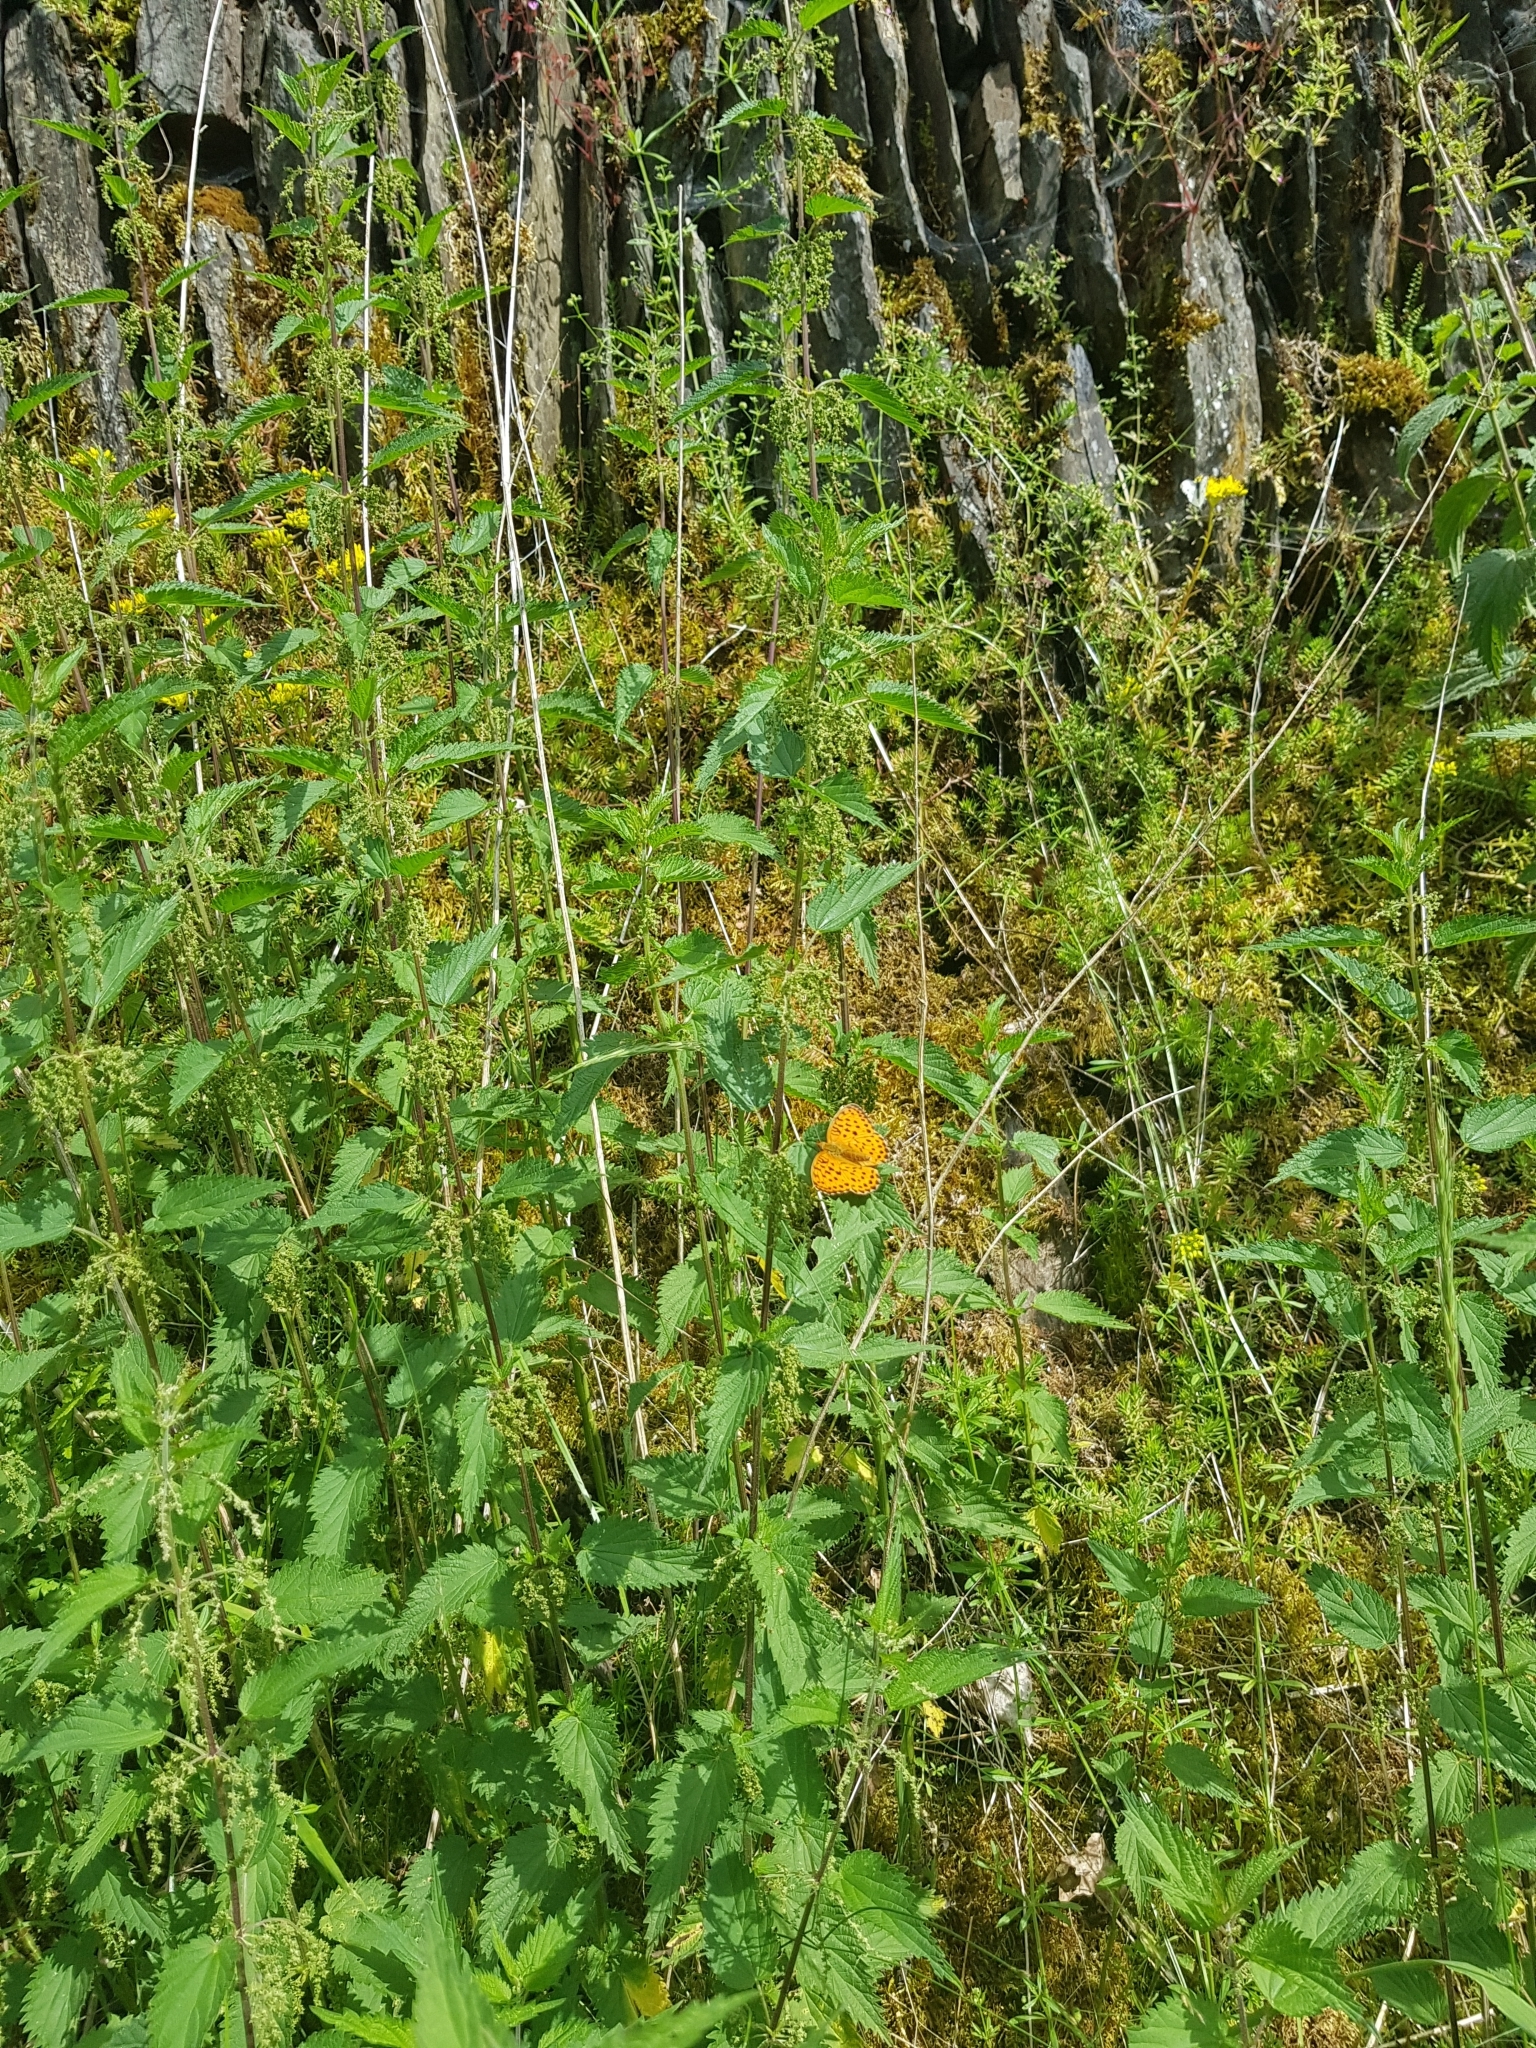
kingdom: Animalia
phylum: Arthropoda
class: Insecta
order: Lepidoptera
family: Nymphalidae
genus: Brenthis
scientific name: Brenthis daphne
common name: Marbled fritillary
